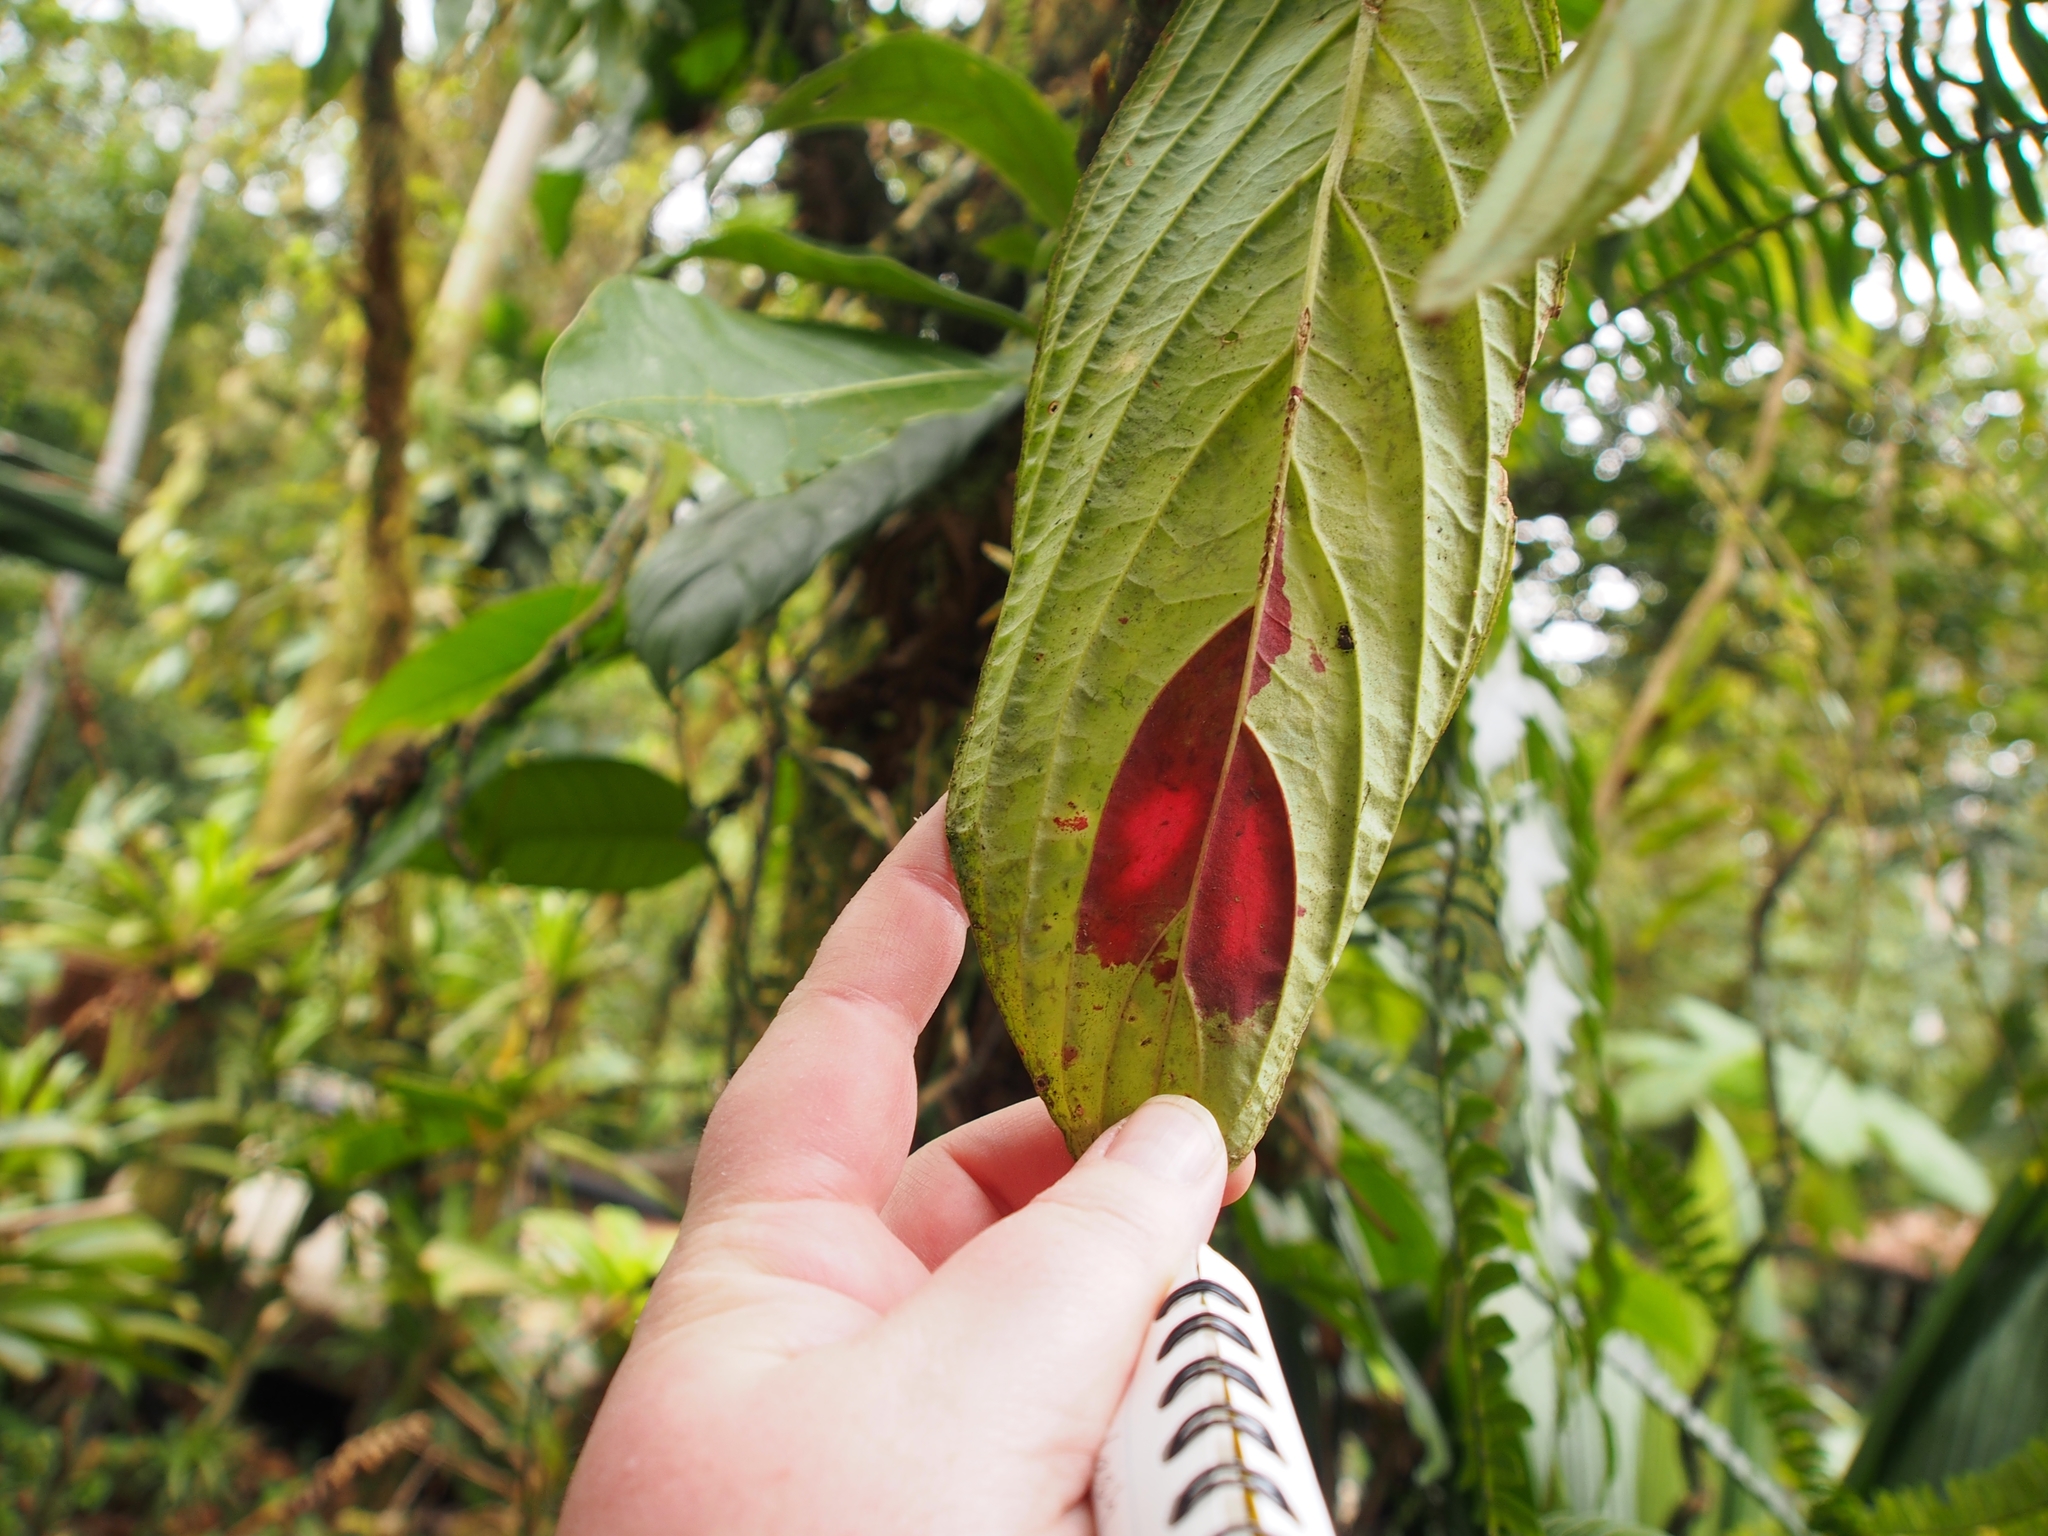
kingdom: Plantae
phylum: Tracheophyta
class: Magnoliopsida
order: Lamiales
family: Gesneriaceae
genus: Columnea
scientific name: Columnea consanguinea
